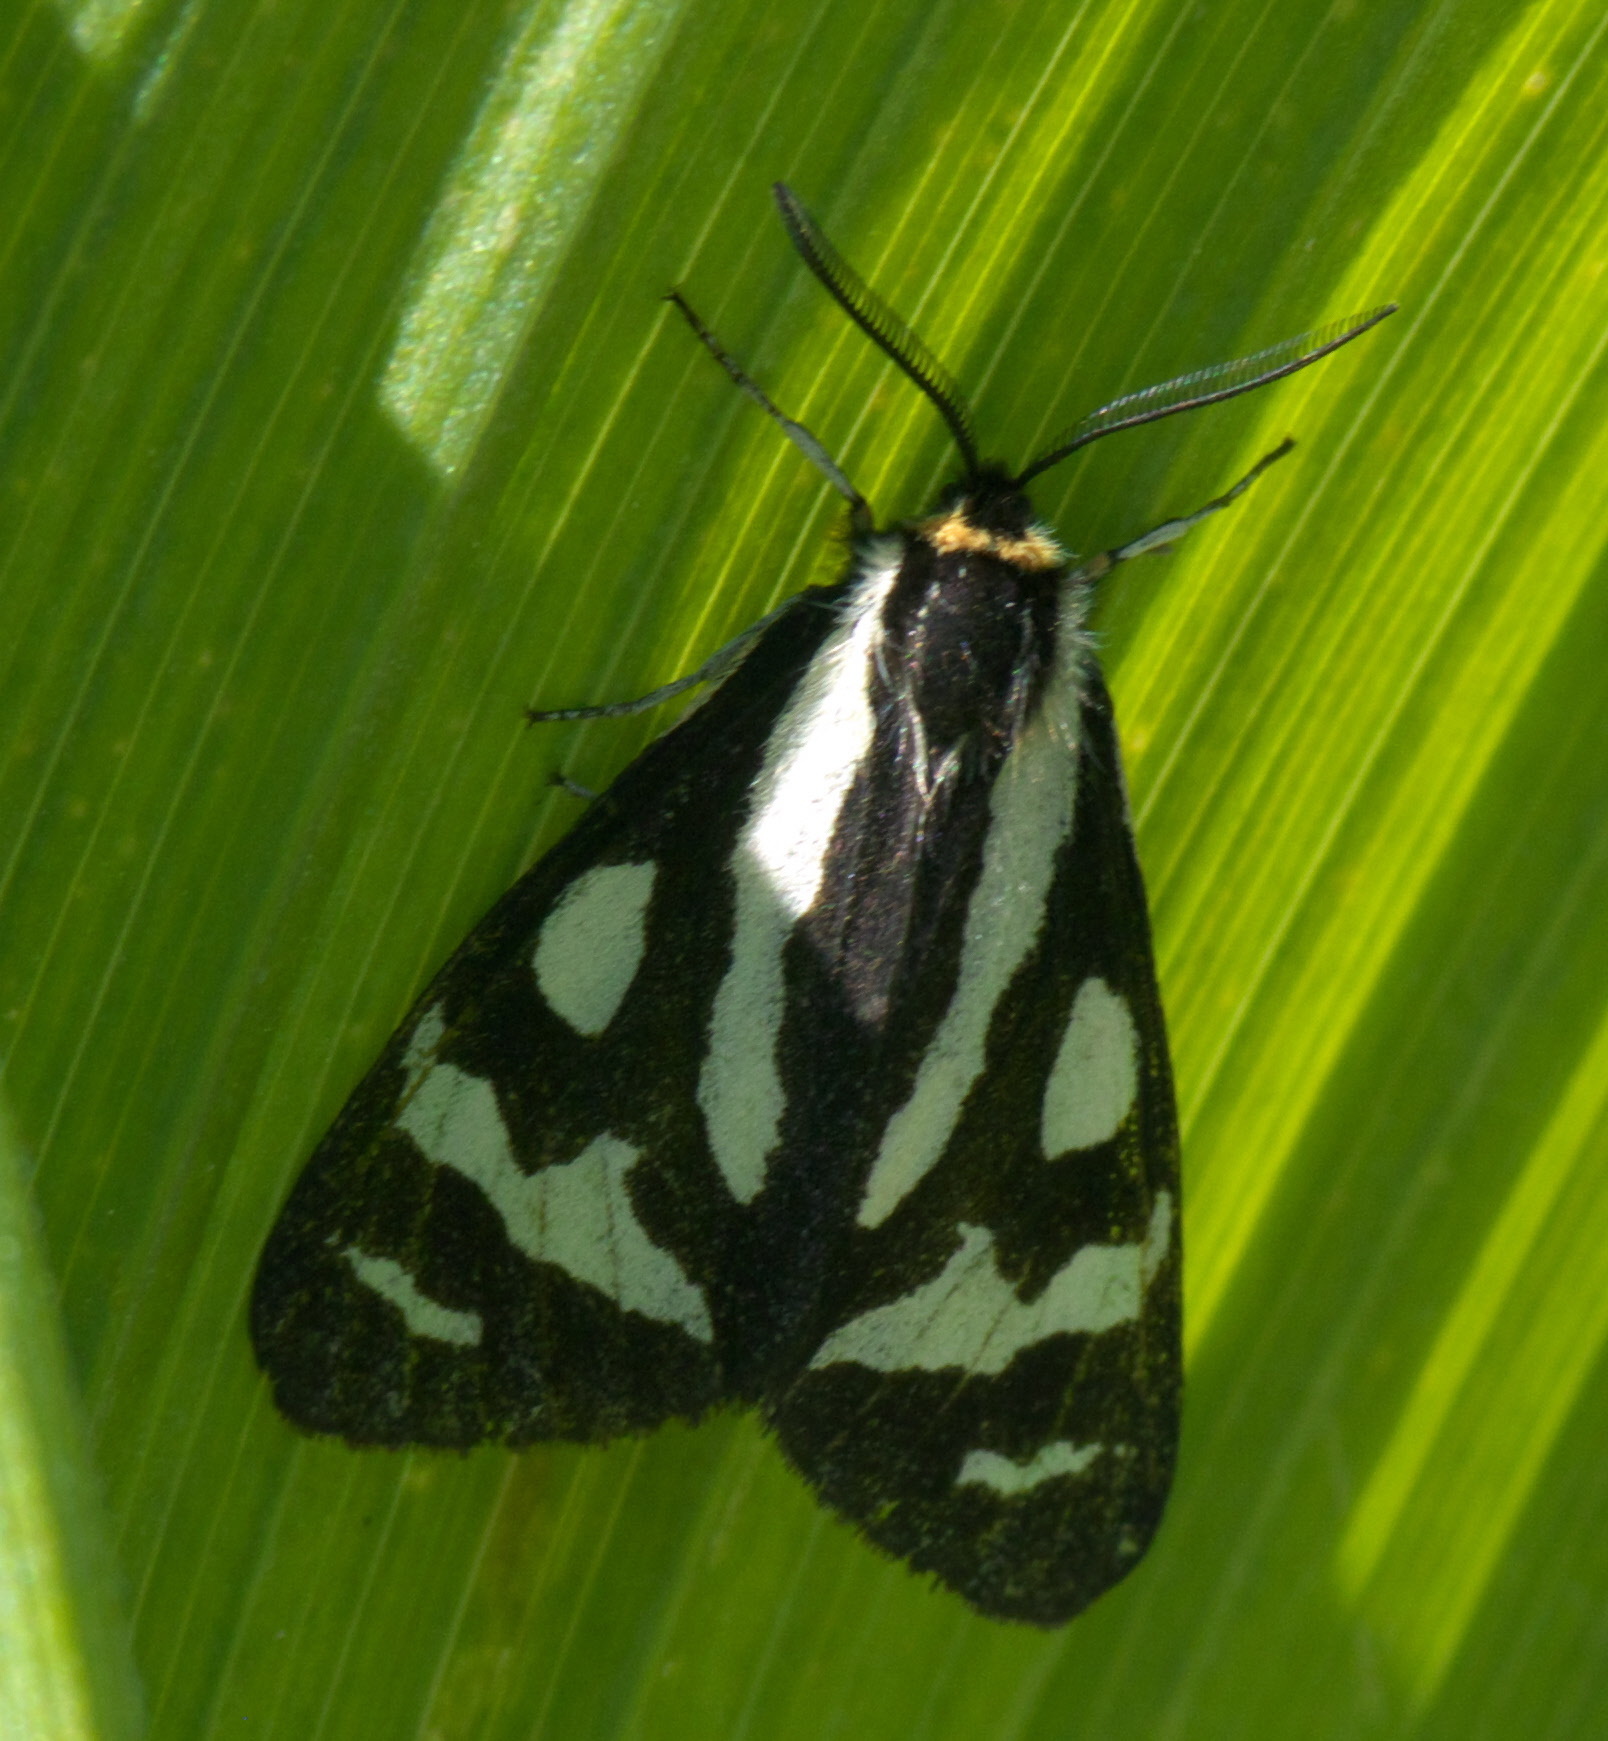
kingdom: Animalia
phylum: Arthropoda
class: Insecta
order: Lepidoptera
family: Erebidae
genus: Parasemia
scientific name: Parasemia plantaginis
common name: Wood tiger
